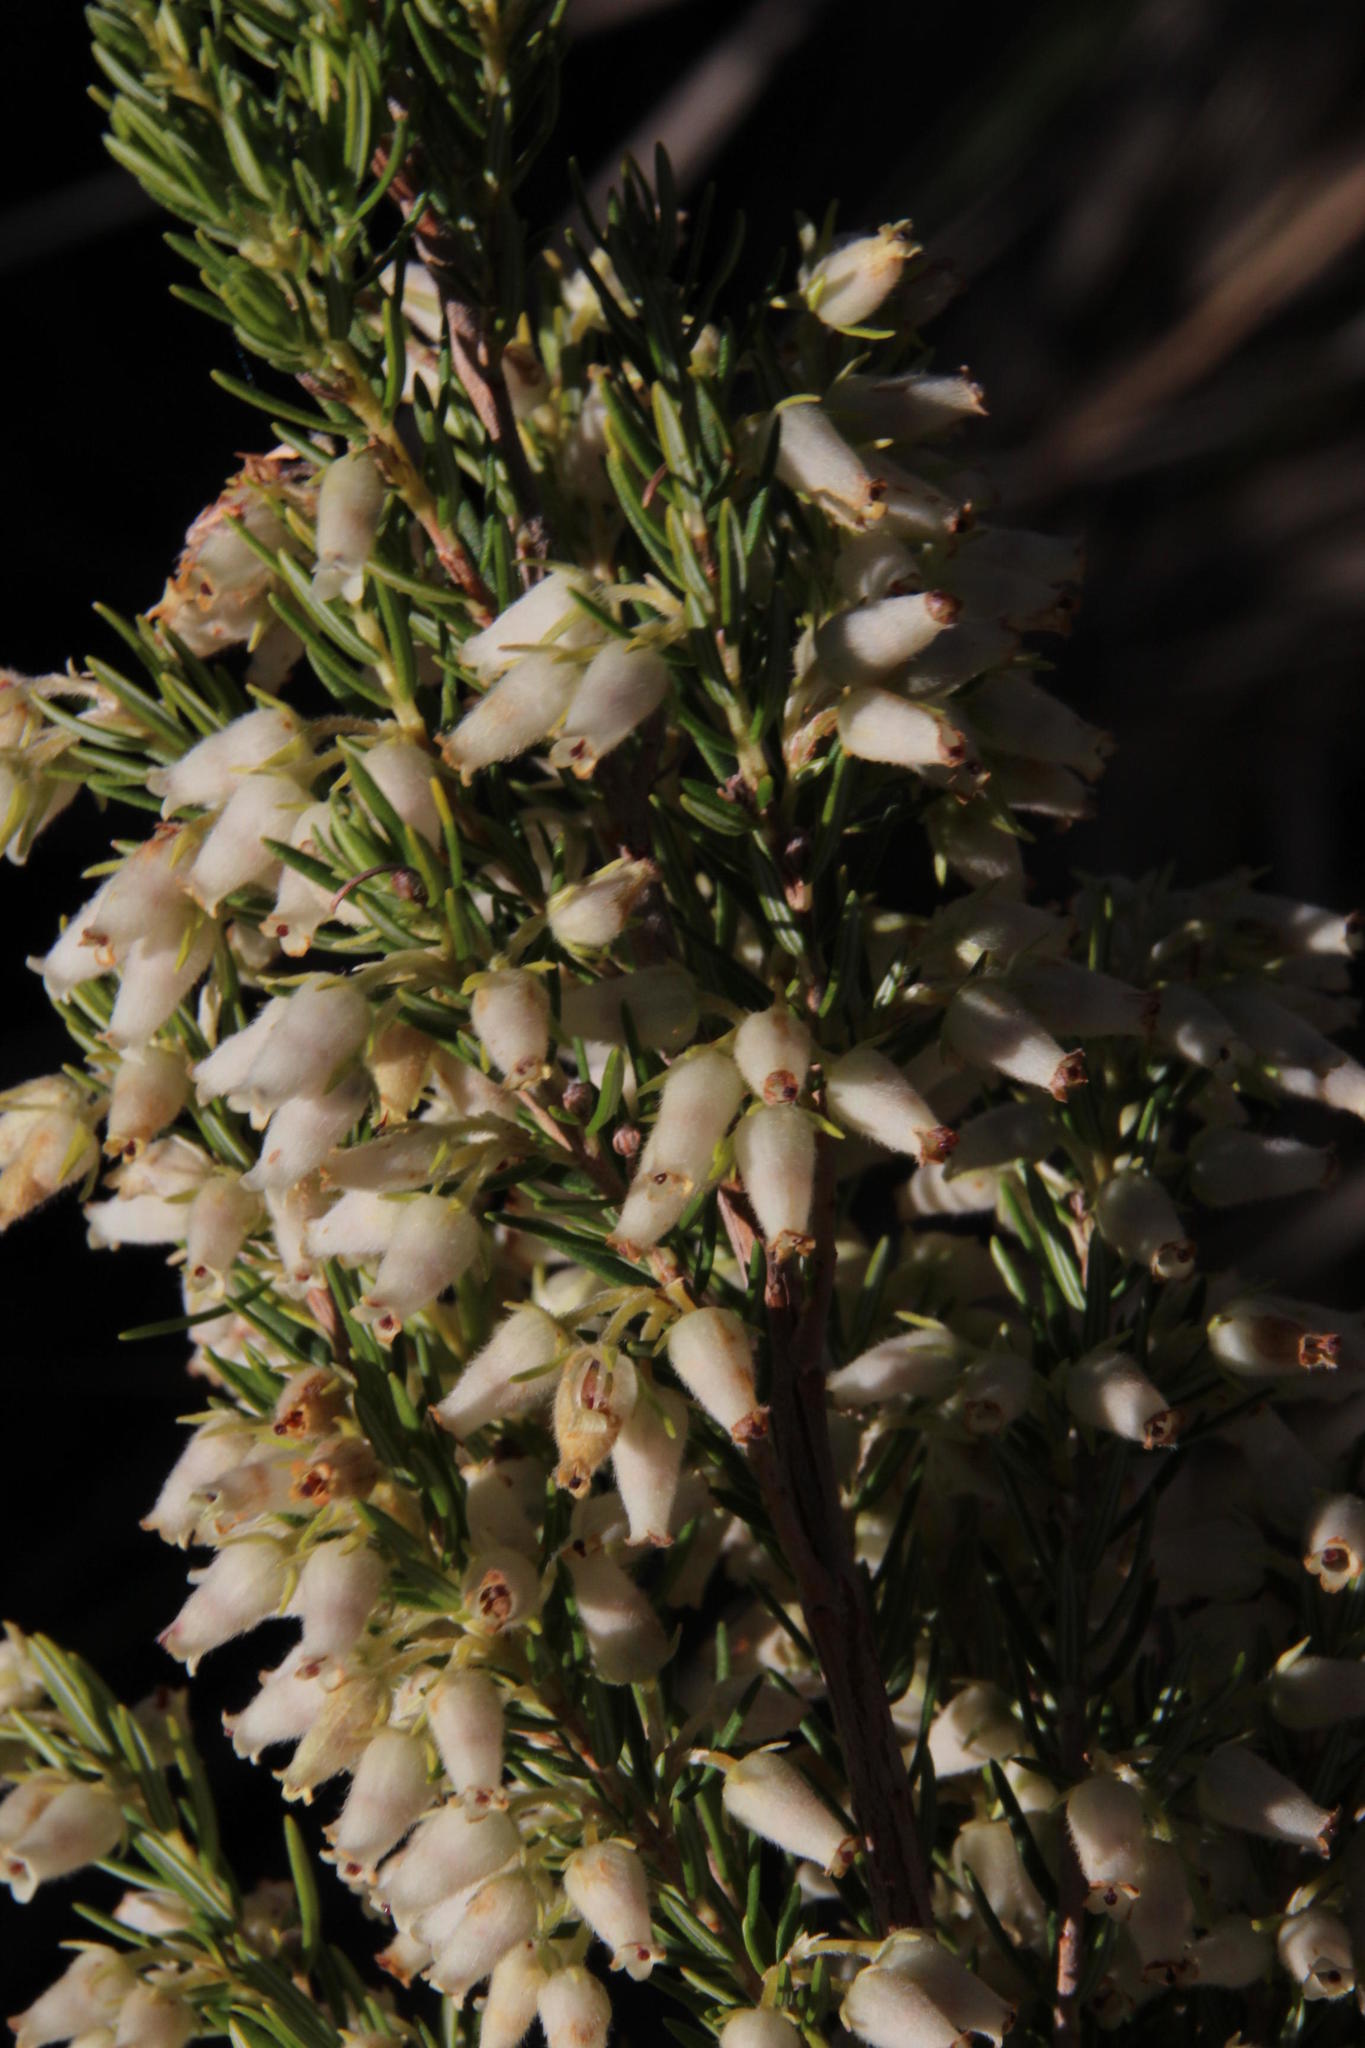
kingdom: Plantae
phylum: Tracheophyta
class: Magnoliopsida
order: Ericales
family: Ericaceae
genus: Erica
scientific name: Erica caffra
